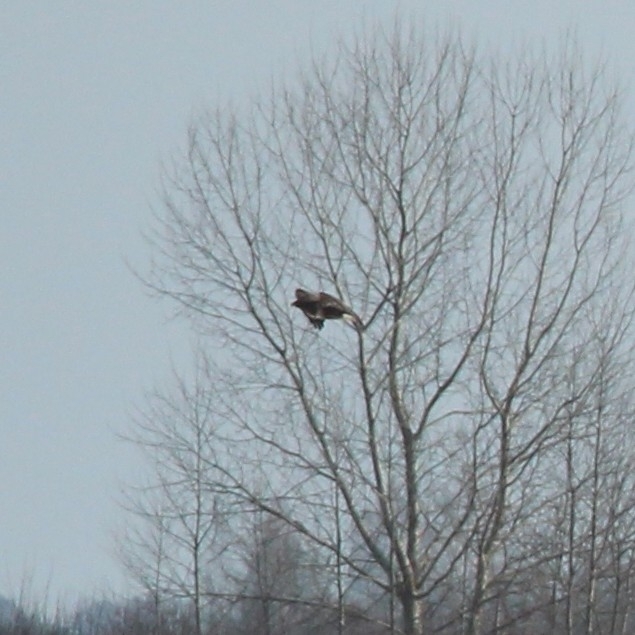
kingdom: Animalia
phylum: Chordata
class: Aves
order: Accipitriformes
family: Accipitridae
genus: Buteo
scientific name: Buteo buteo
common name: Common buzzard
